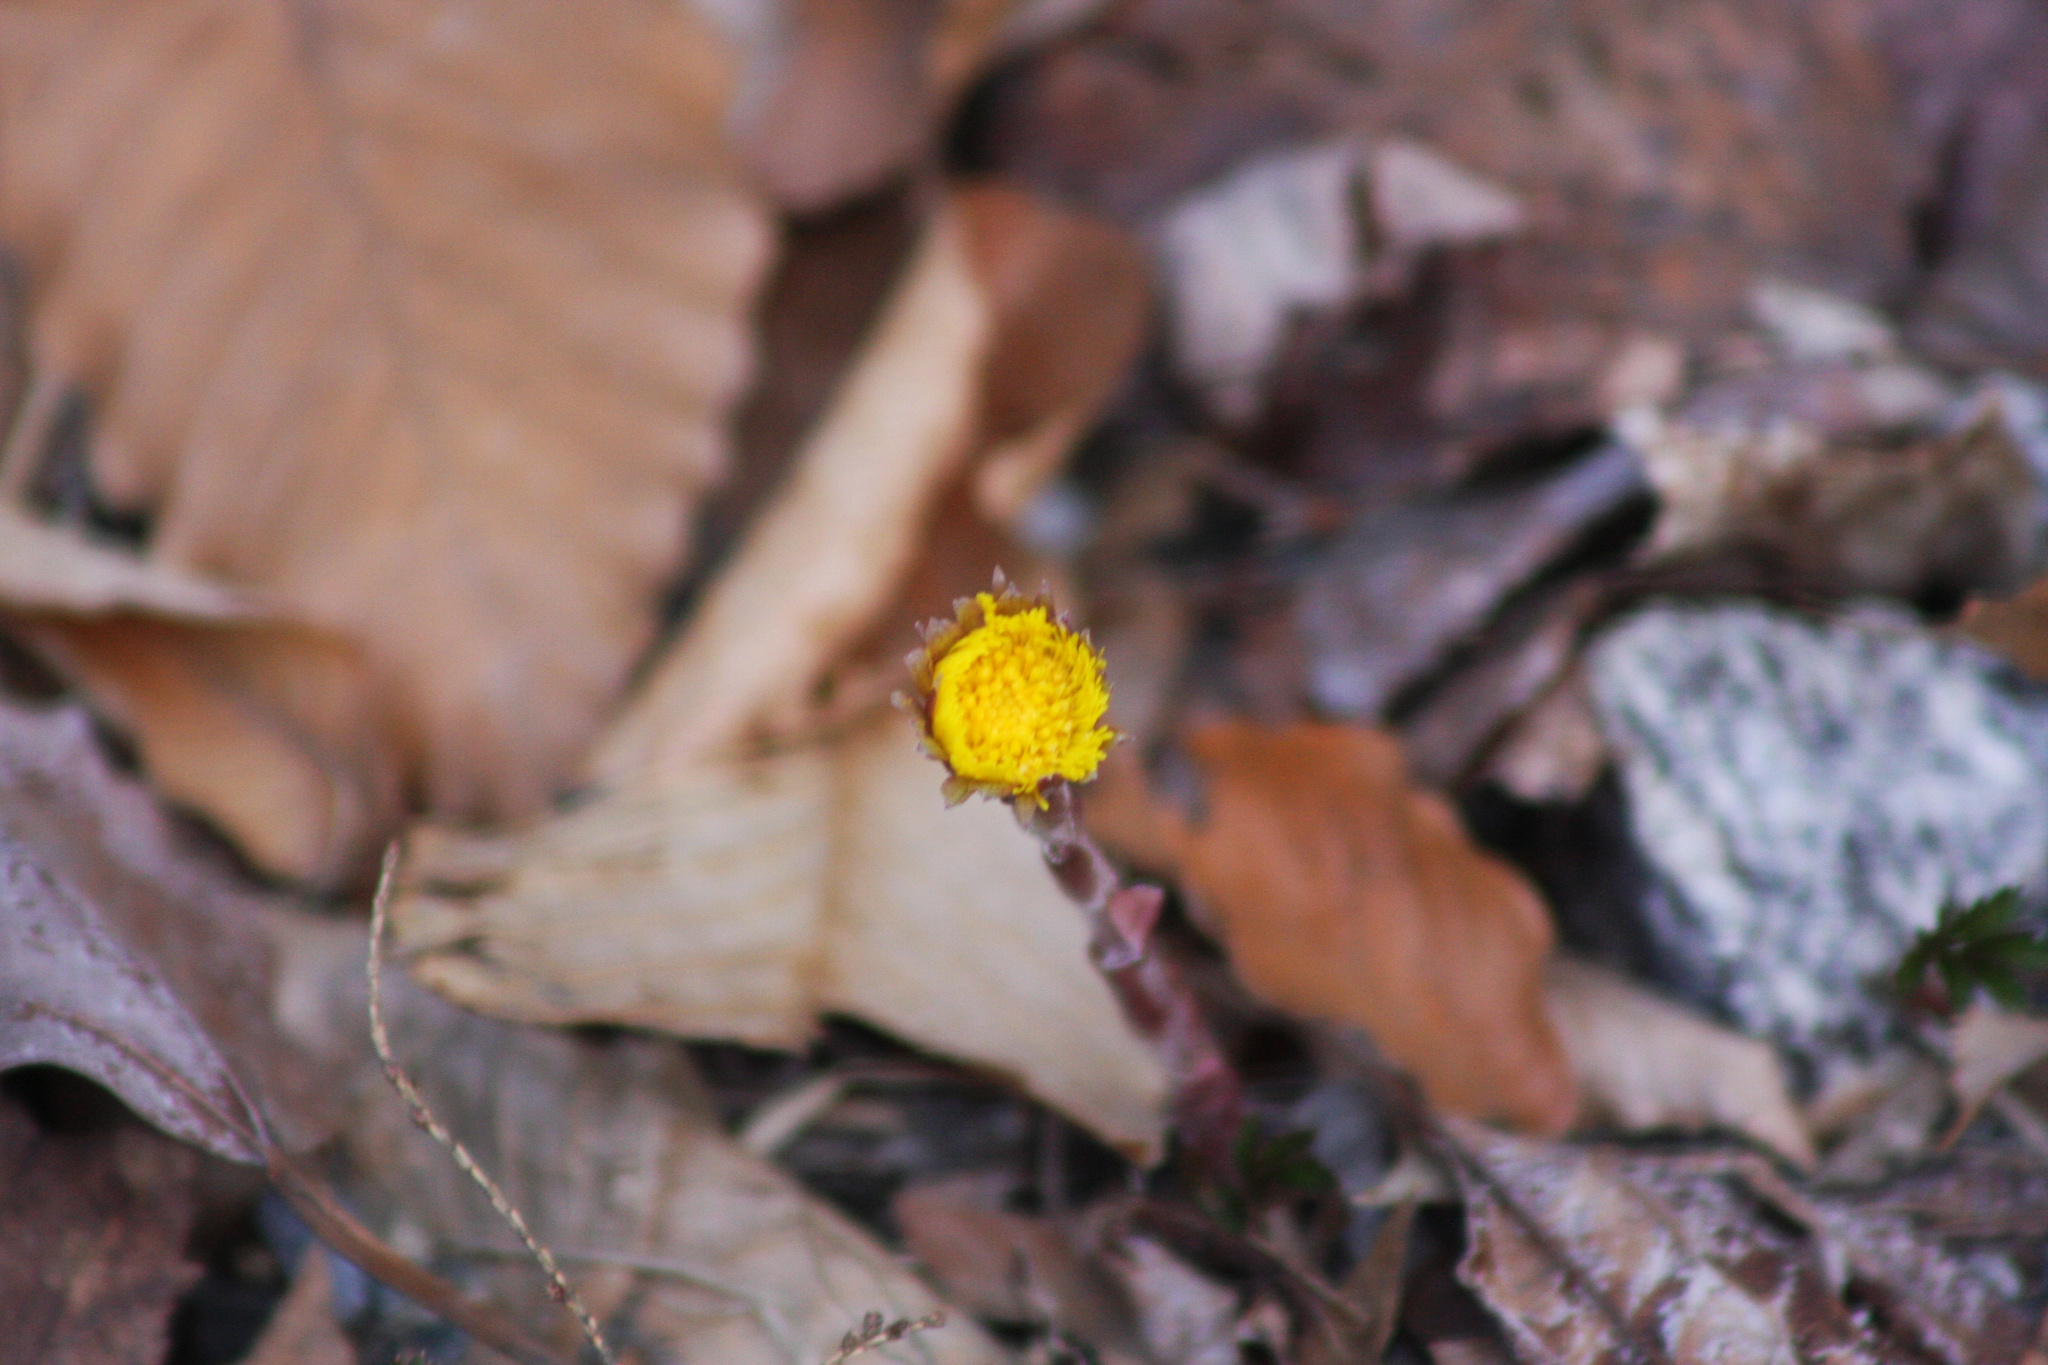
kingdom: Plantae
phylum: Tracheophyta
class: Magnoliopsida
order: Asterales
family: Asteraceae
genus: Tussilago
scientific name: Tussilago farfara
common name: Coltsfoot
